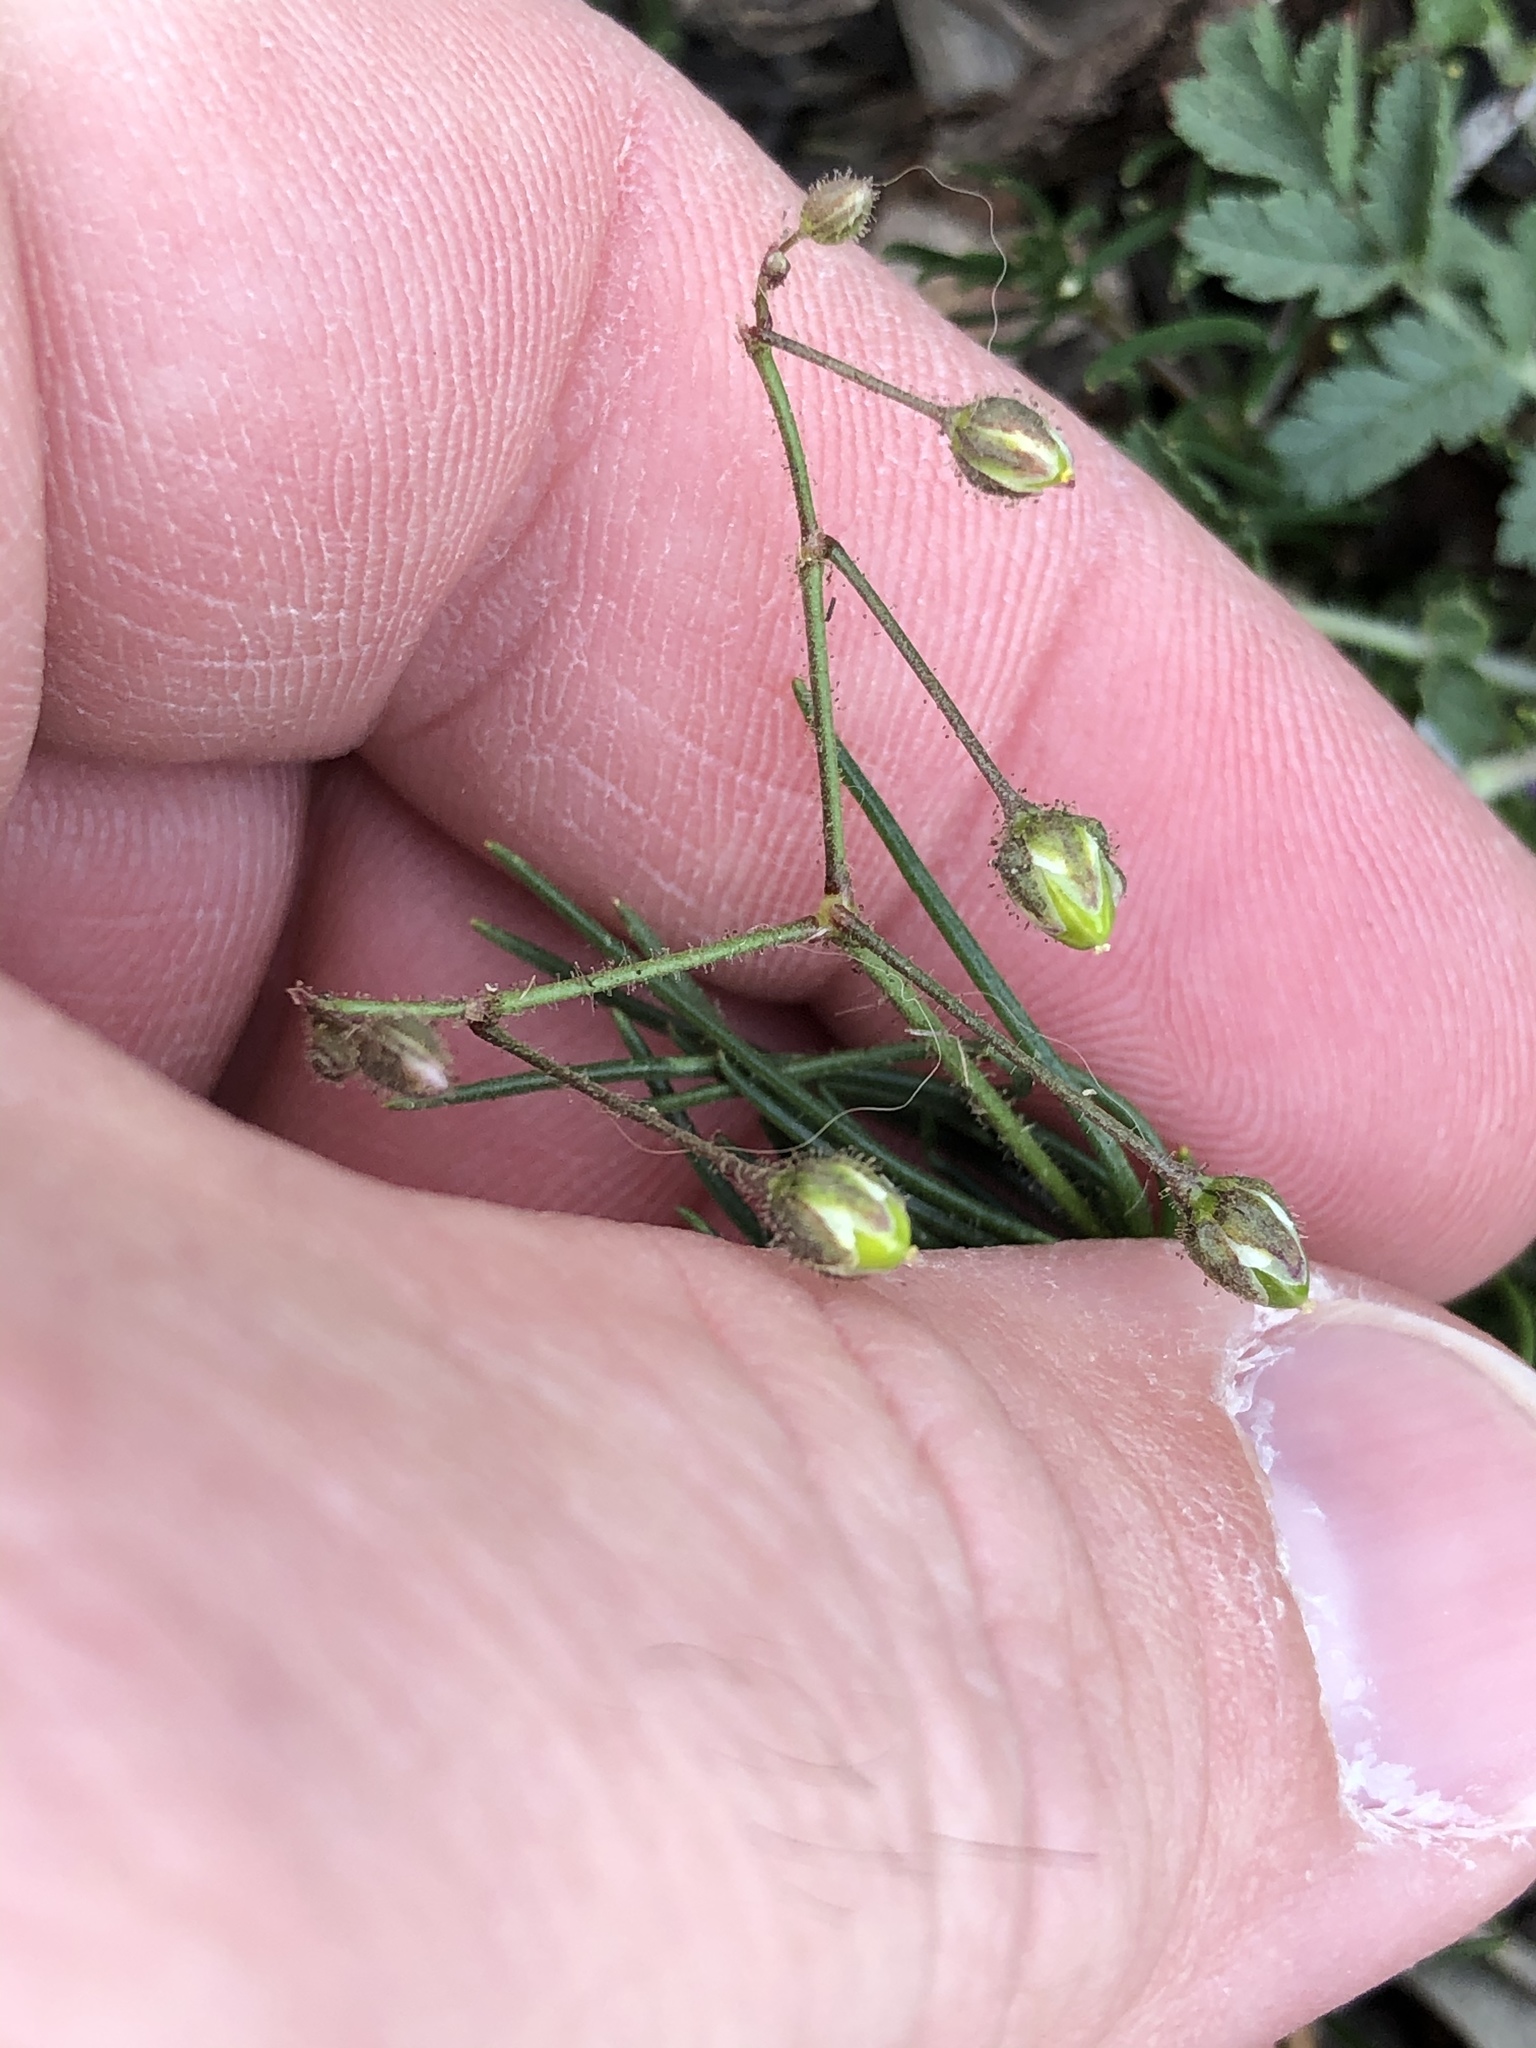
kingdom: Plantae
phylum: Tracheophyta
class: Magnoliopsida
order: Caryophyllales
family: Caryophyllaceae
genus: Spergula
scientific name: Spergula arvensis
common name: Corn spurrey
